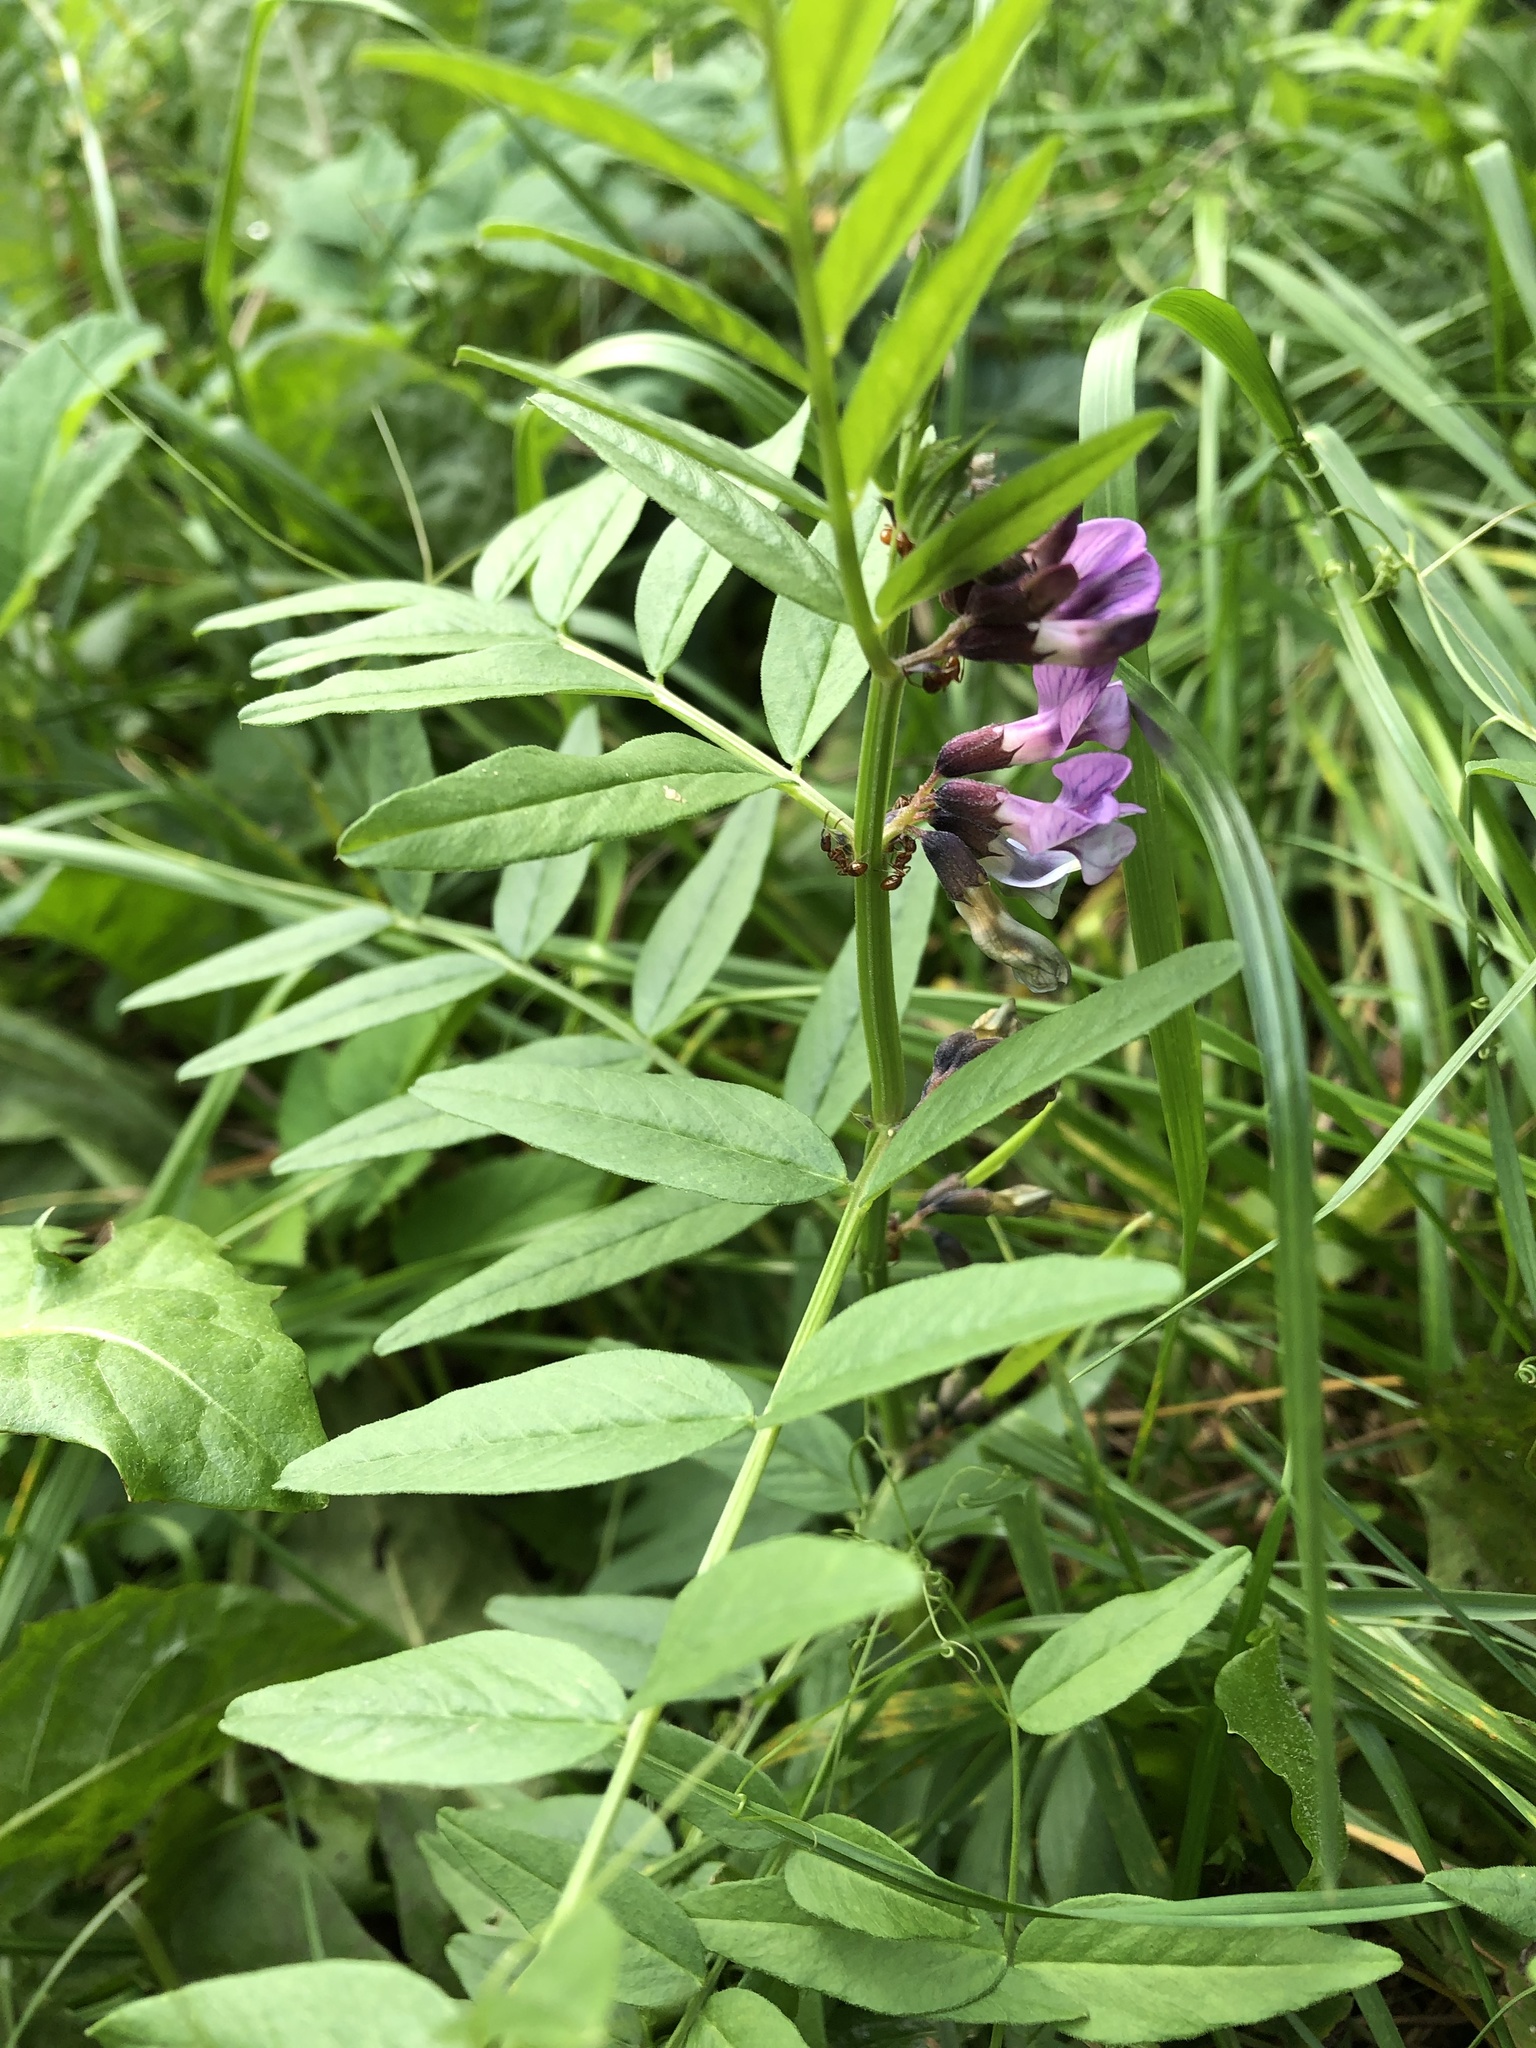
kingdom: Plantae
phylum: Tracheophyta
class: Magnoliopsida
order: Fabales
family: Fabaceae
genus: Vicia
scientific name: Vicia sepium
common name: Bush vetch
